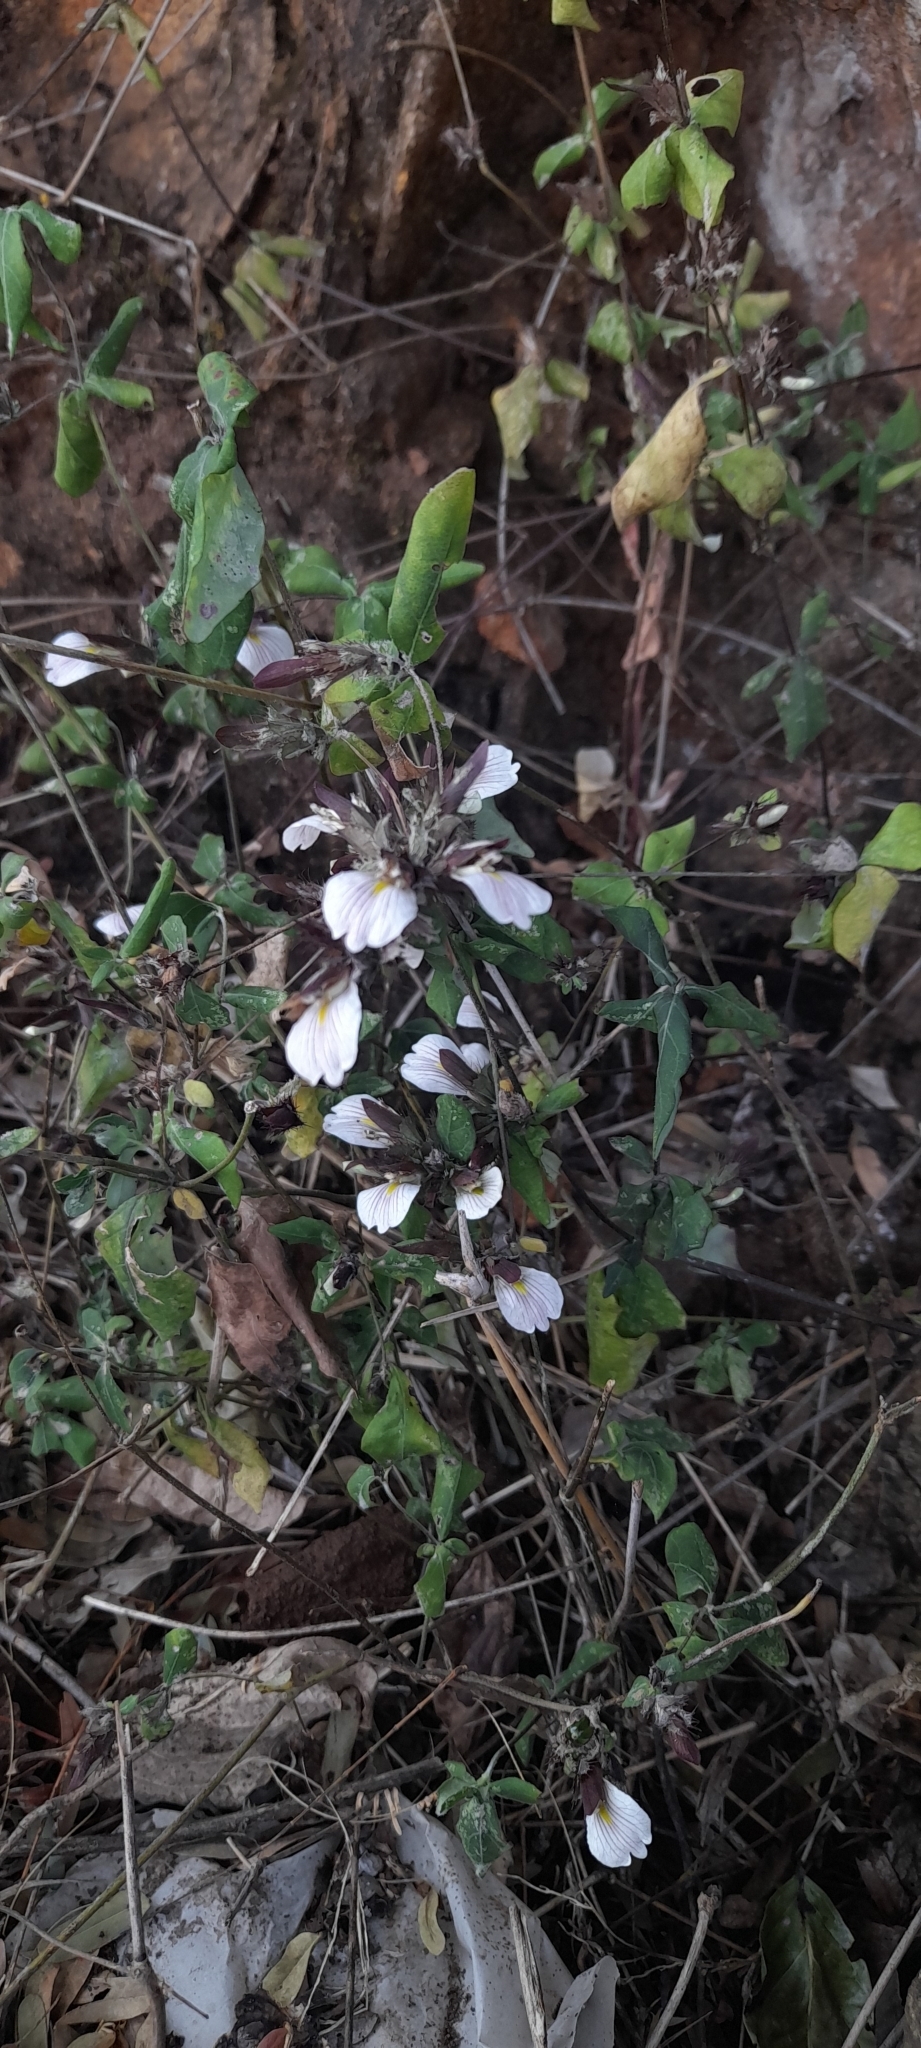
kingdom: Plantae
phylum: Tracheophyta
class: Magnoliopsida
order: Lamiales
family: Acanthaceae
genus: Blepharis
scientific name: Blepharis maderaspatensis
